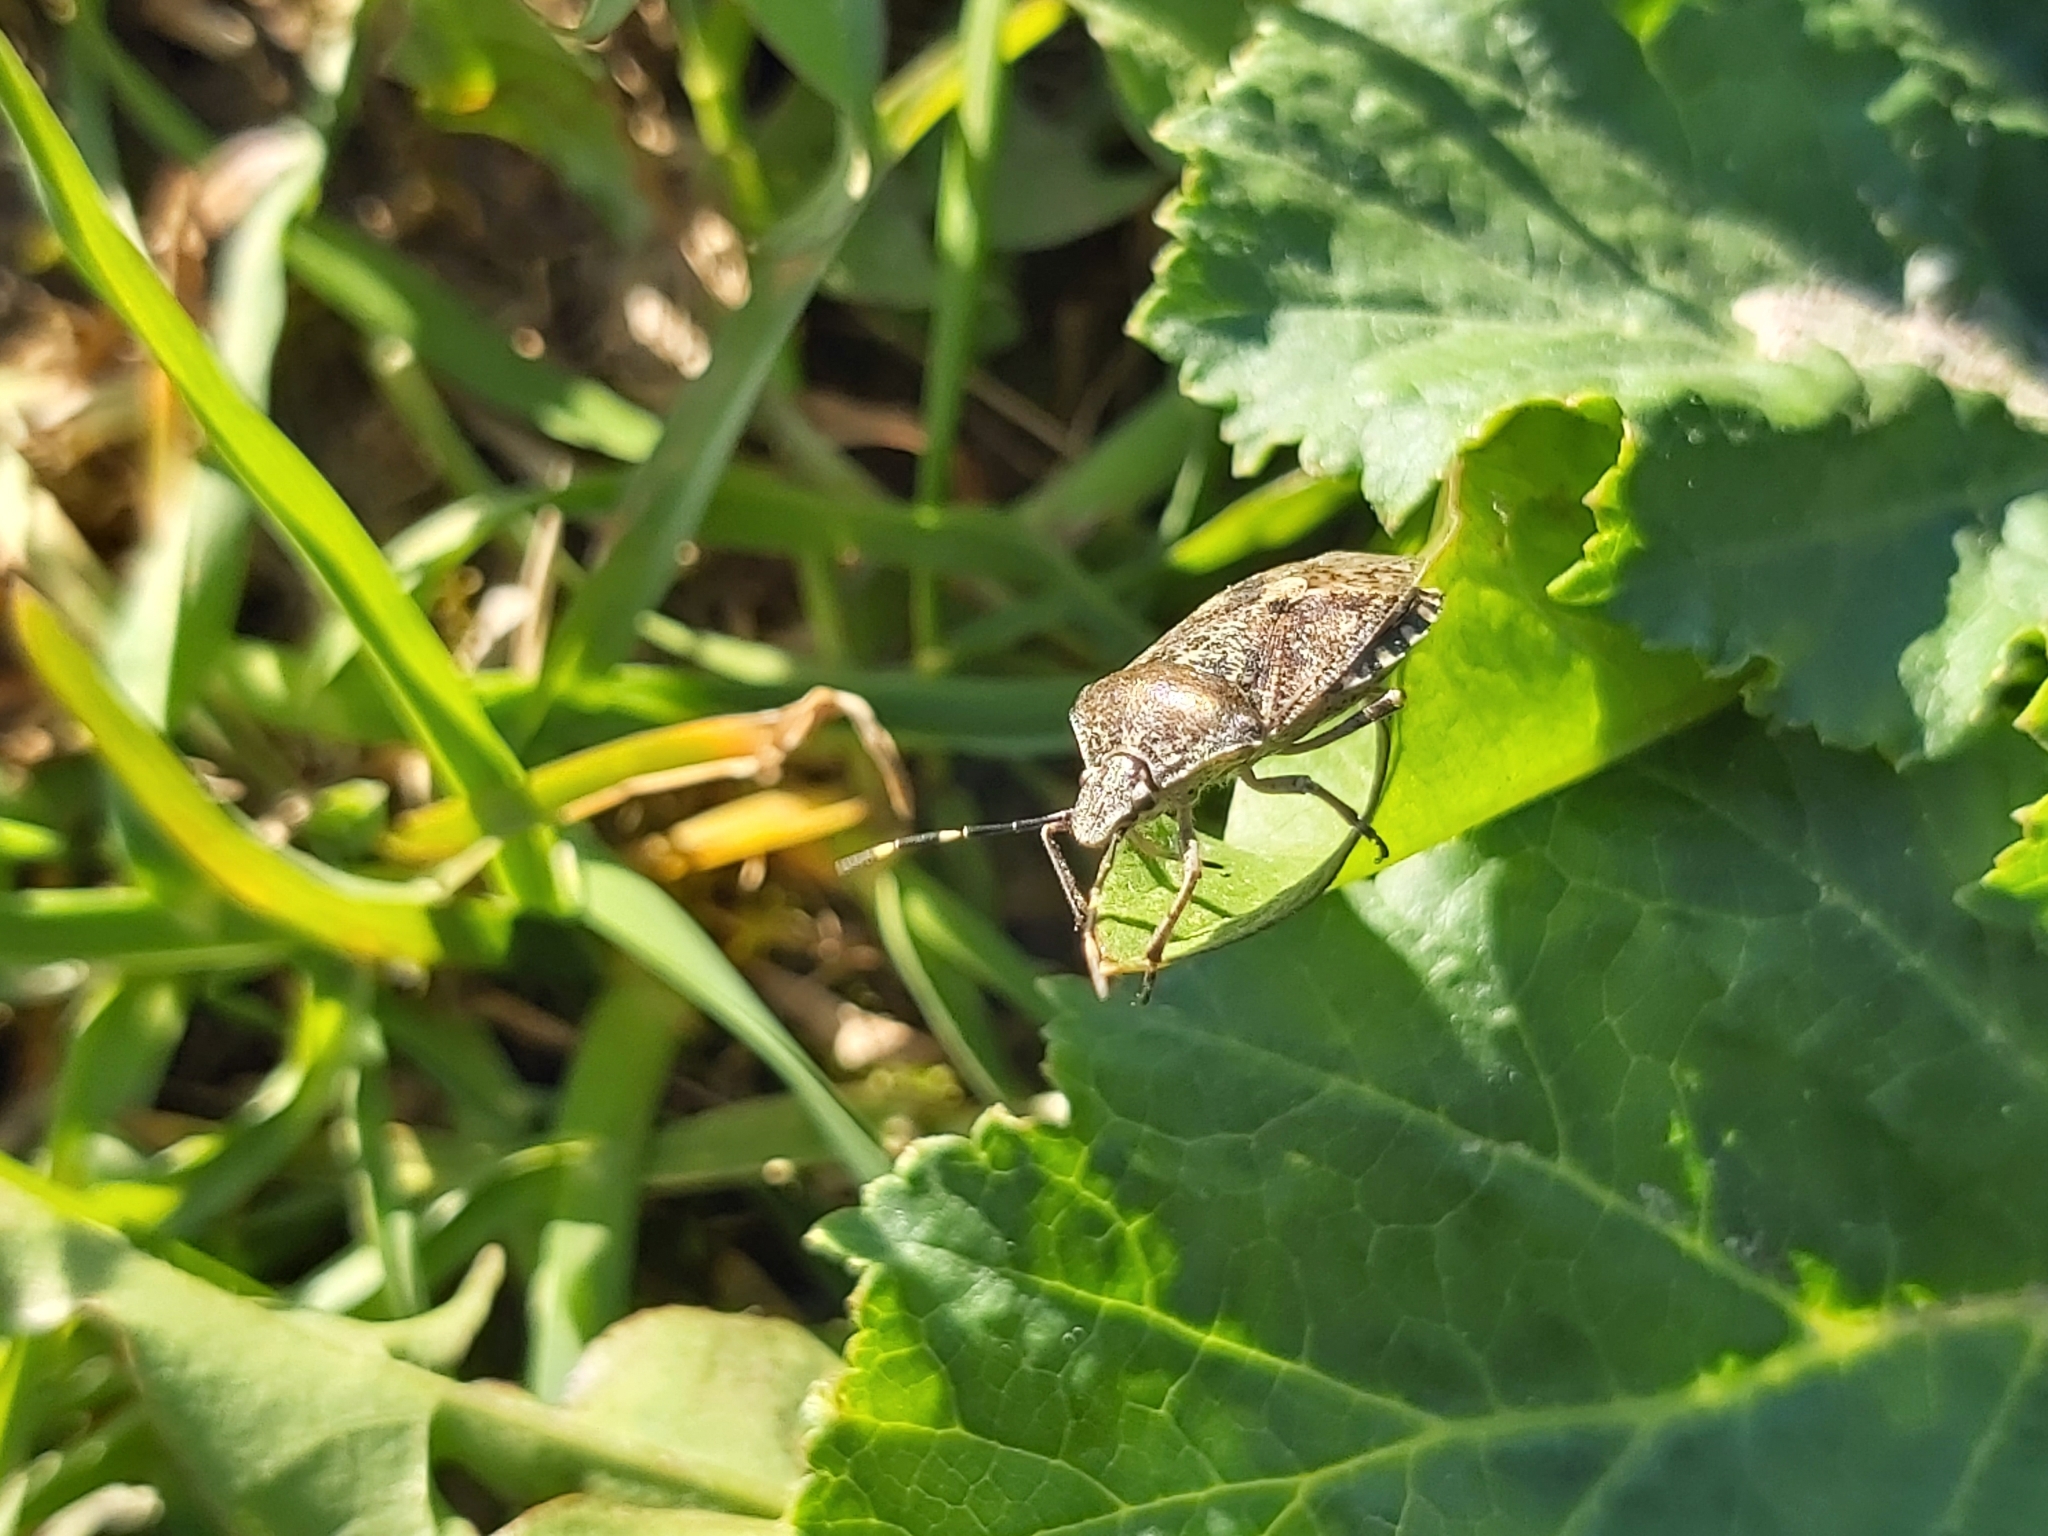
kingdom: Animalia
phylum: Arthropoda
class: Insecta
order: Hemiptera
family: Pentatomidae
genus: Rhaphigaster
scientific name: Rhaphigaster nebulosa
